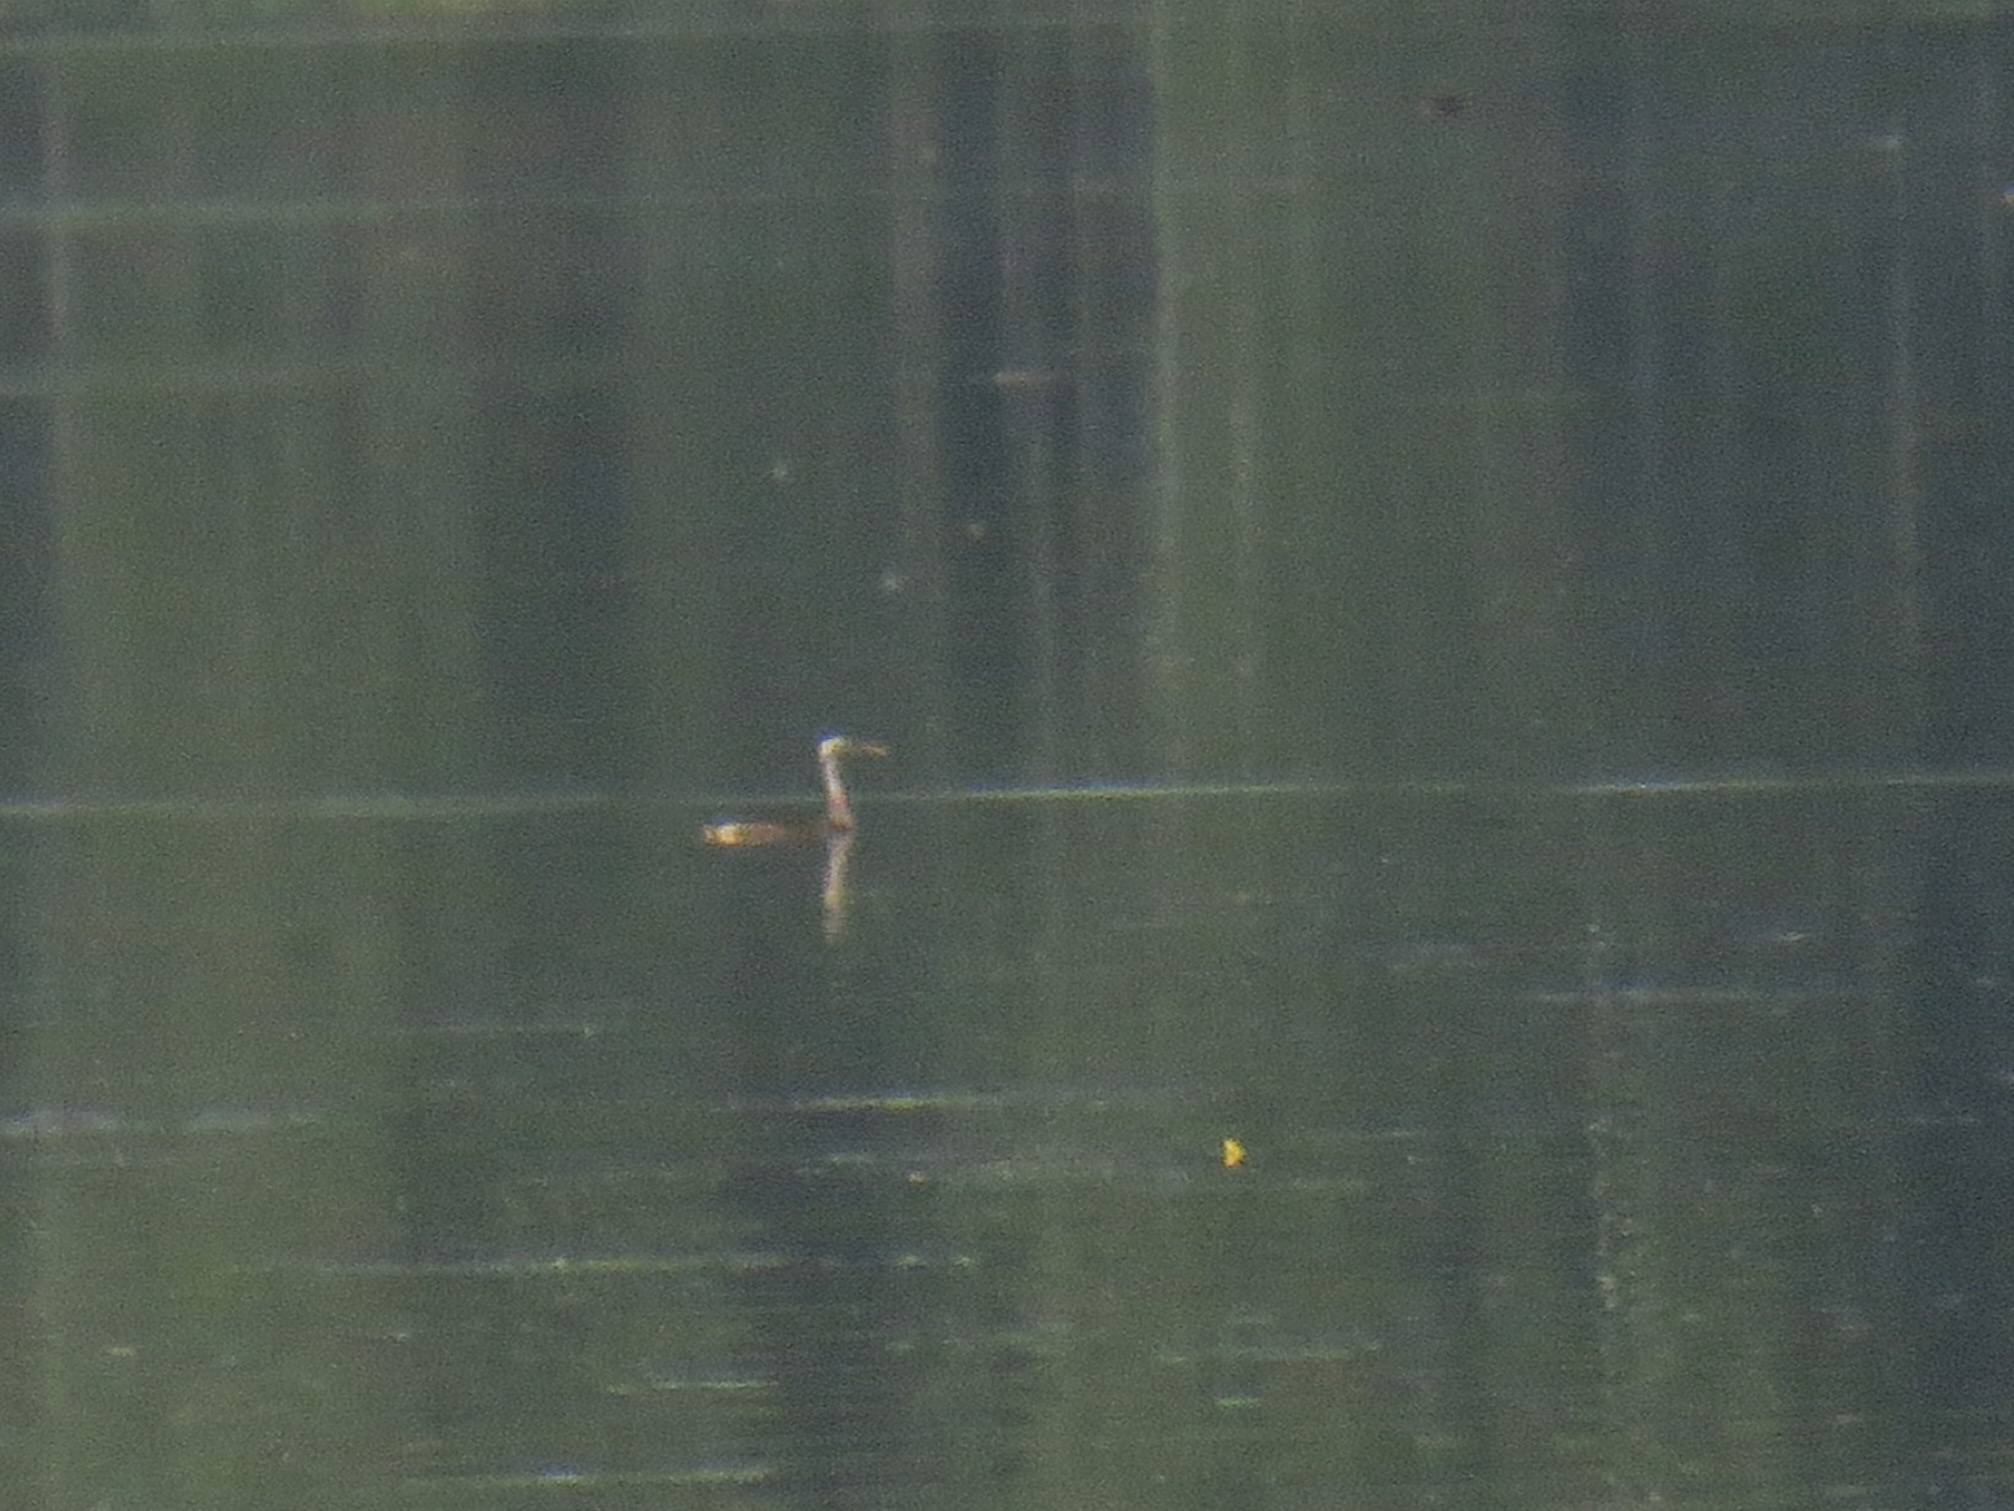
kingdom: Animalia
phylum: Chordata
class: Aves
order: Podicipediformes
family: Podicipedidae
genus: Podiceps
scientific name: Podiceps cristatus
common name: Great crested grebe
